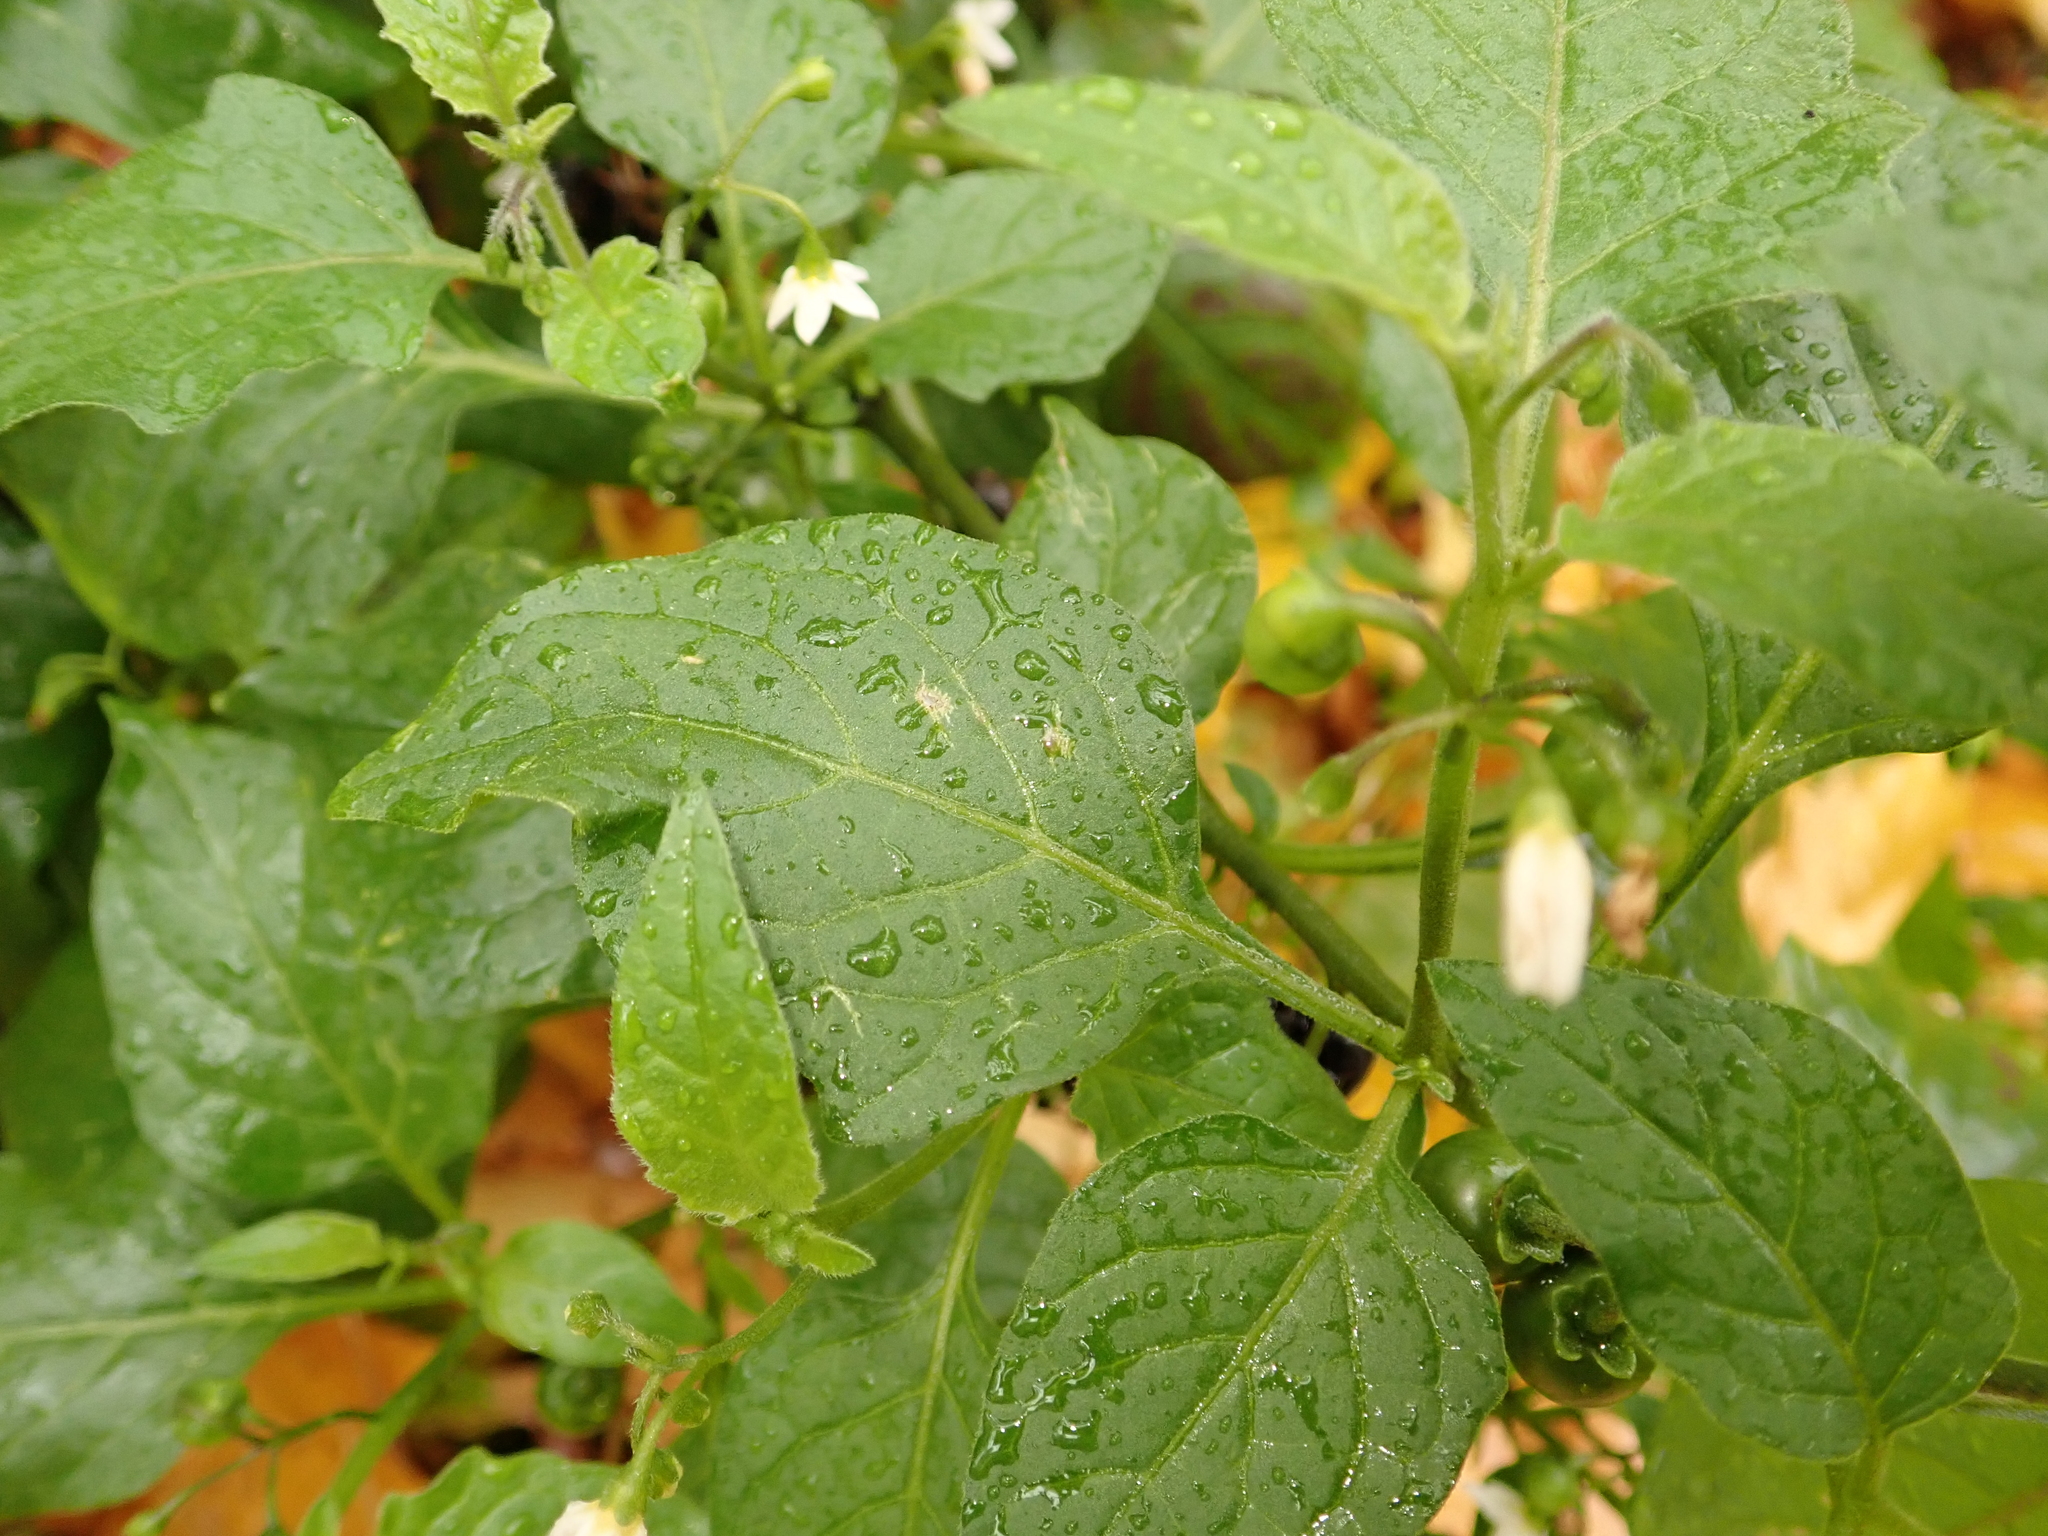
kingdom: Plantae
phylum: Tracheophyta
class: Magnoliopsida
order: Solanales
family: Solanaceae
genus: Solanum
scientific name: Solanum nigrum
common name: Black nightshade
